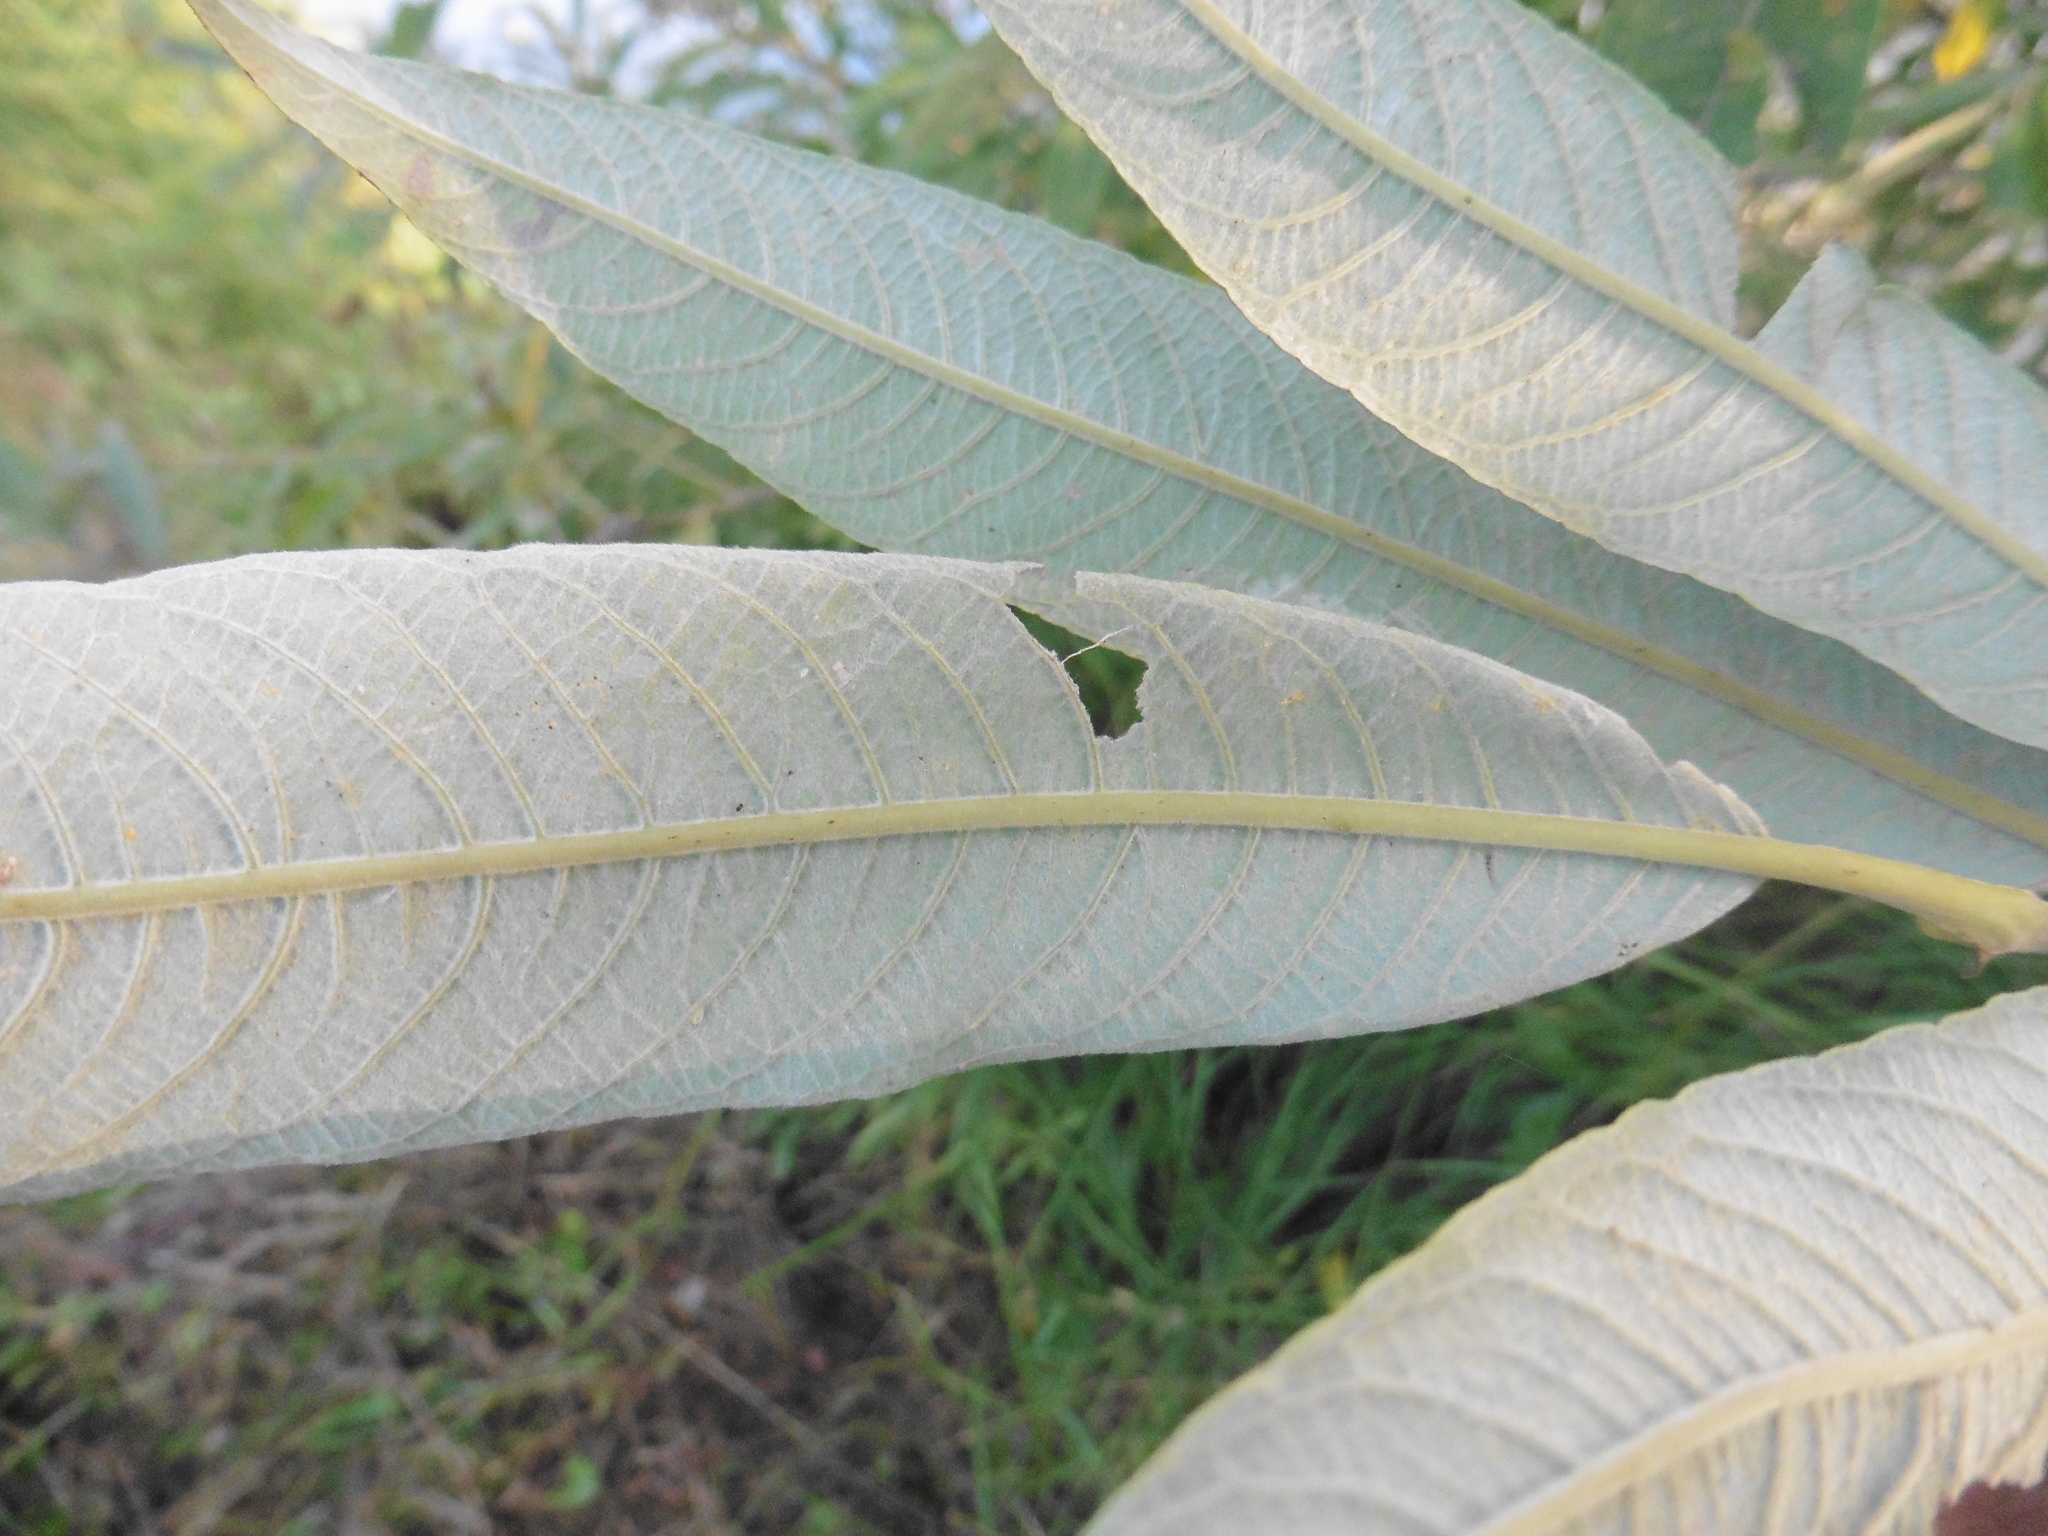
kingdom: Plantae
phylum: Tracheophyta
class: Magnoliopsida
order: Malpighiales
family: Salicaceae
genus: Salix
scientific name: Salix gmelinii
